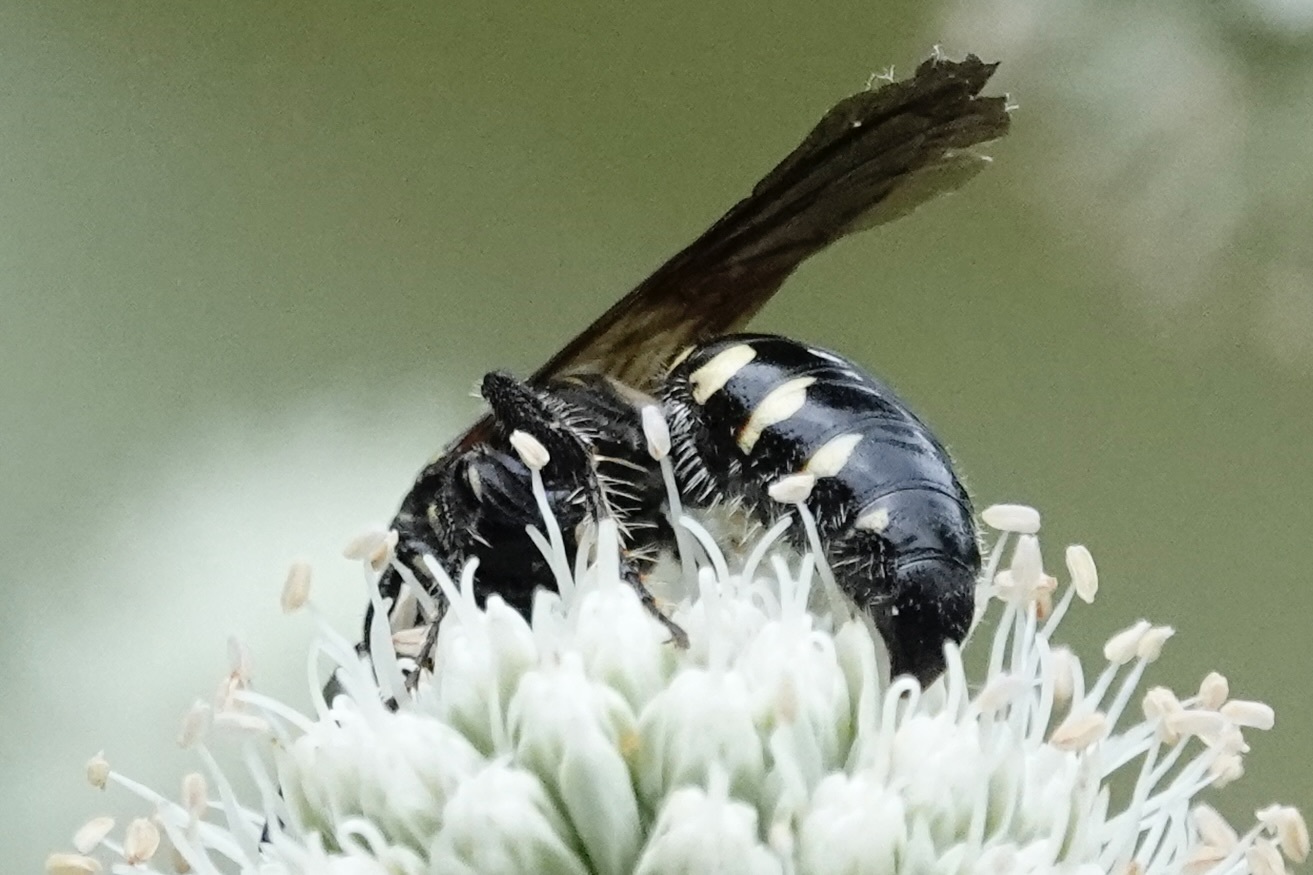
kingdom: Animalia
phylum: Arthropoda
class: Insecta
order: Hymenoptera
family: Tiphiidae
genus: Myzinum
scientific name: Myzinum obscurum
